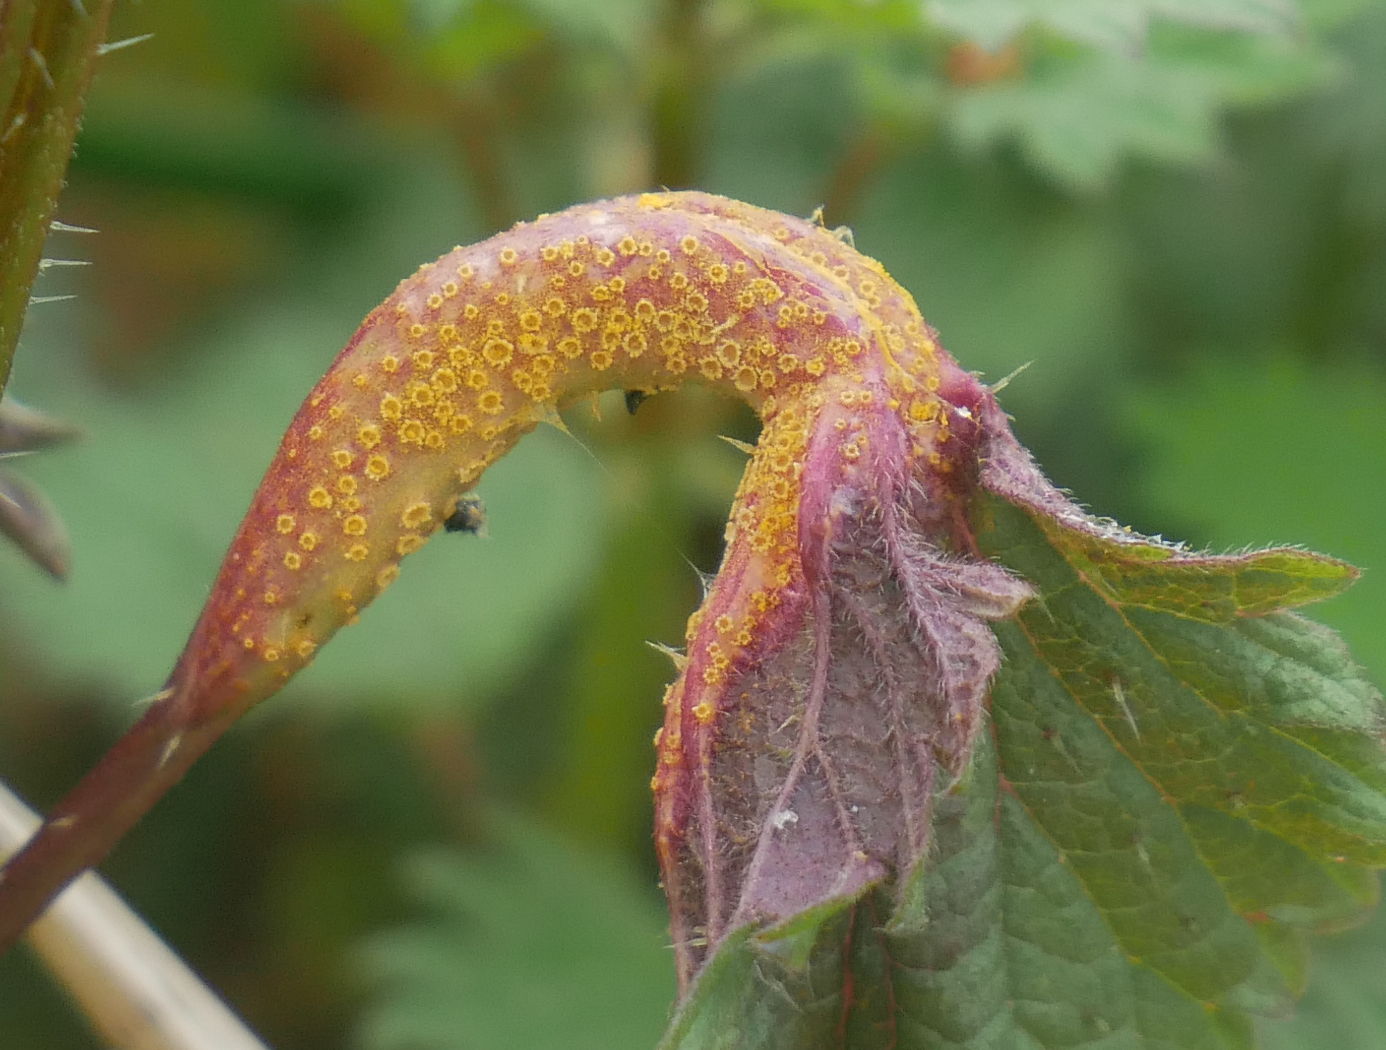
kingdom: Fungi
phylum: Basidiomycota
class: Pucciniomycetes
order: Pucciniales
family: Pucciniaceae
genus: Puccinia
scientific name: Puccinia urticata
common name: Nettle clustercup rust fungus
